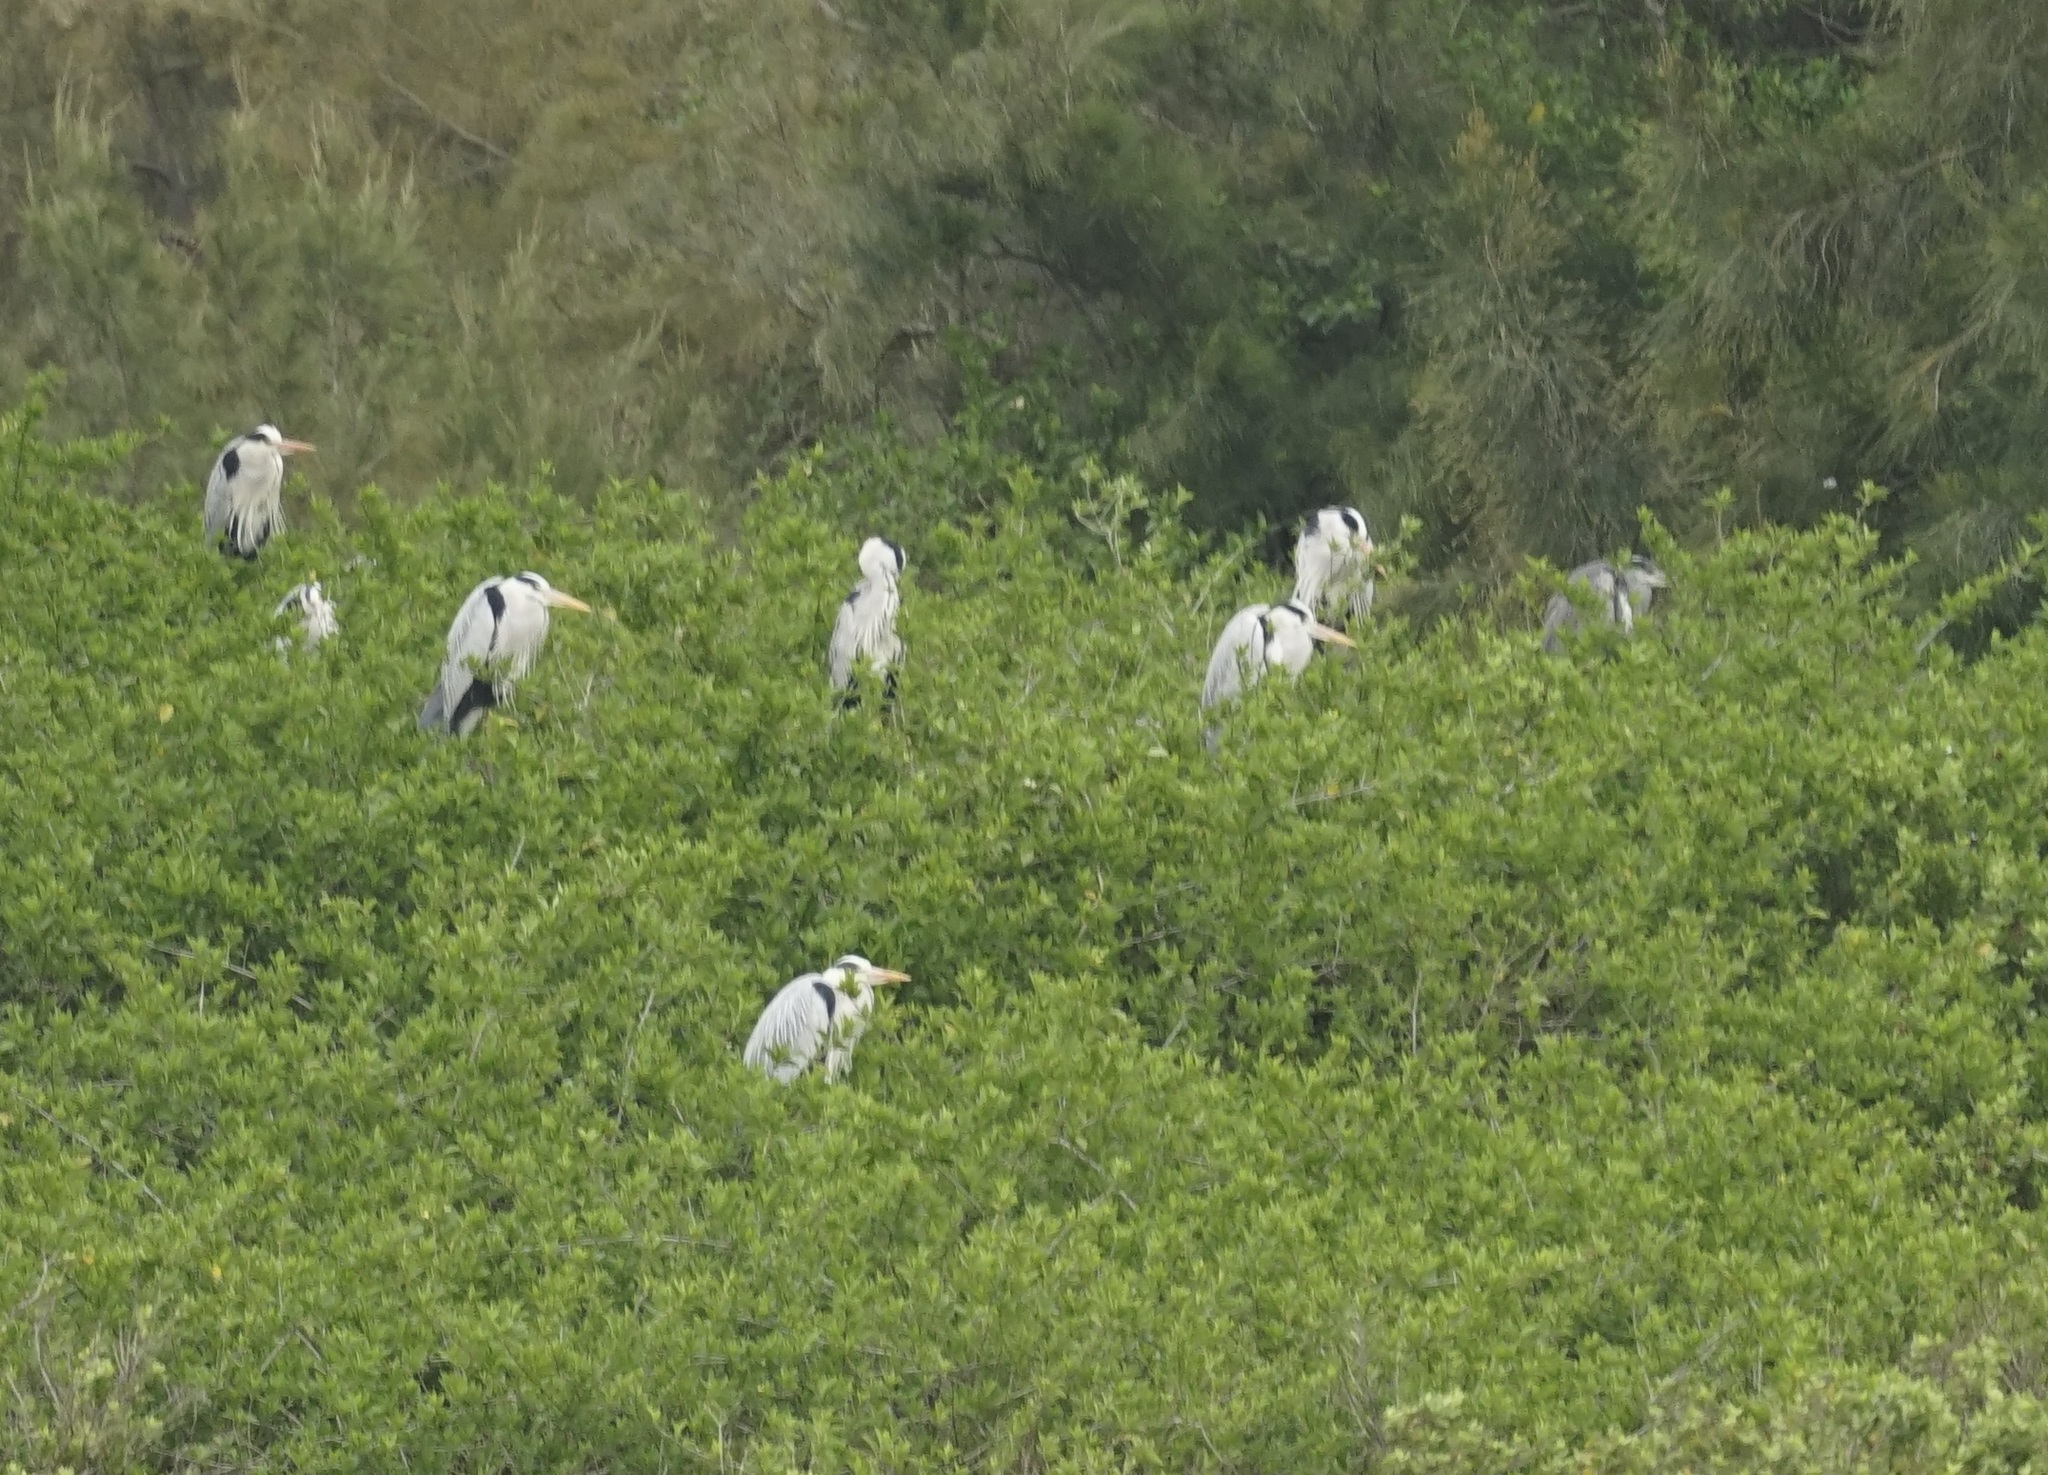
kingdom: Animalia
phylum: Chordata
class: Aves
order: Pelecaniformes
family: Ardeidae
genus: Ardea
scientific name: Ardea cinerea
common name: Grey heron
